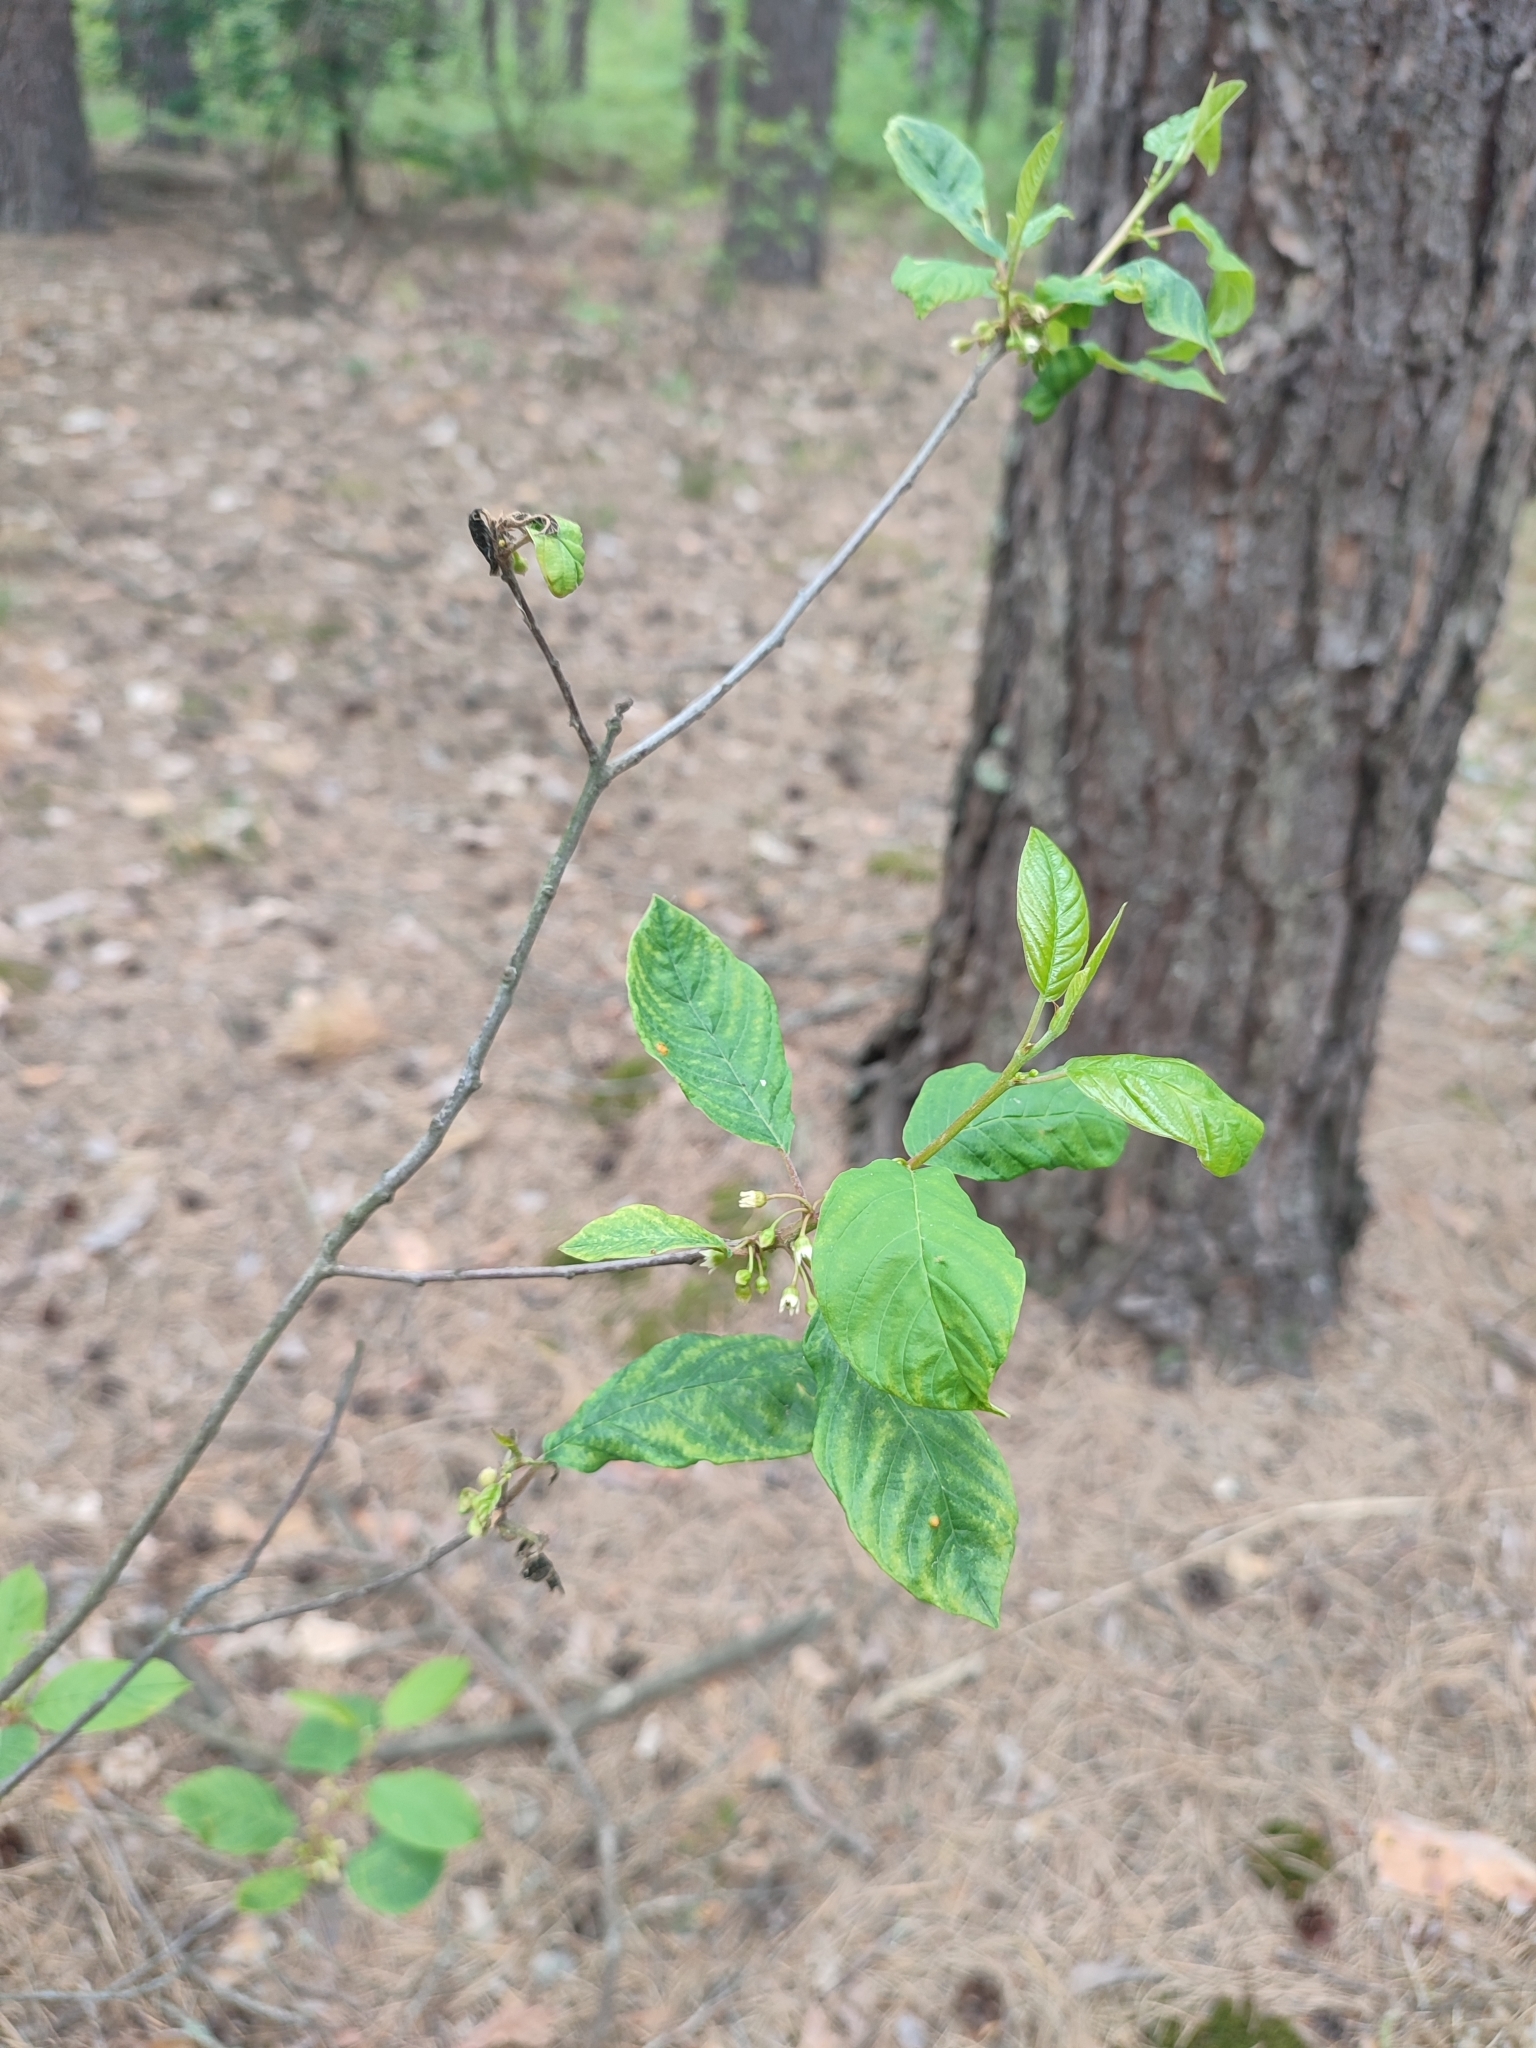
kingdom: Plantae
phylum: Tracheophyta
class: Magnoliopsida
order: Rosales
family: Rhamnaceae
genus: Frangula
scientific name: Frangula alnus
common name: Alder buckthorn
